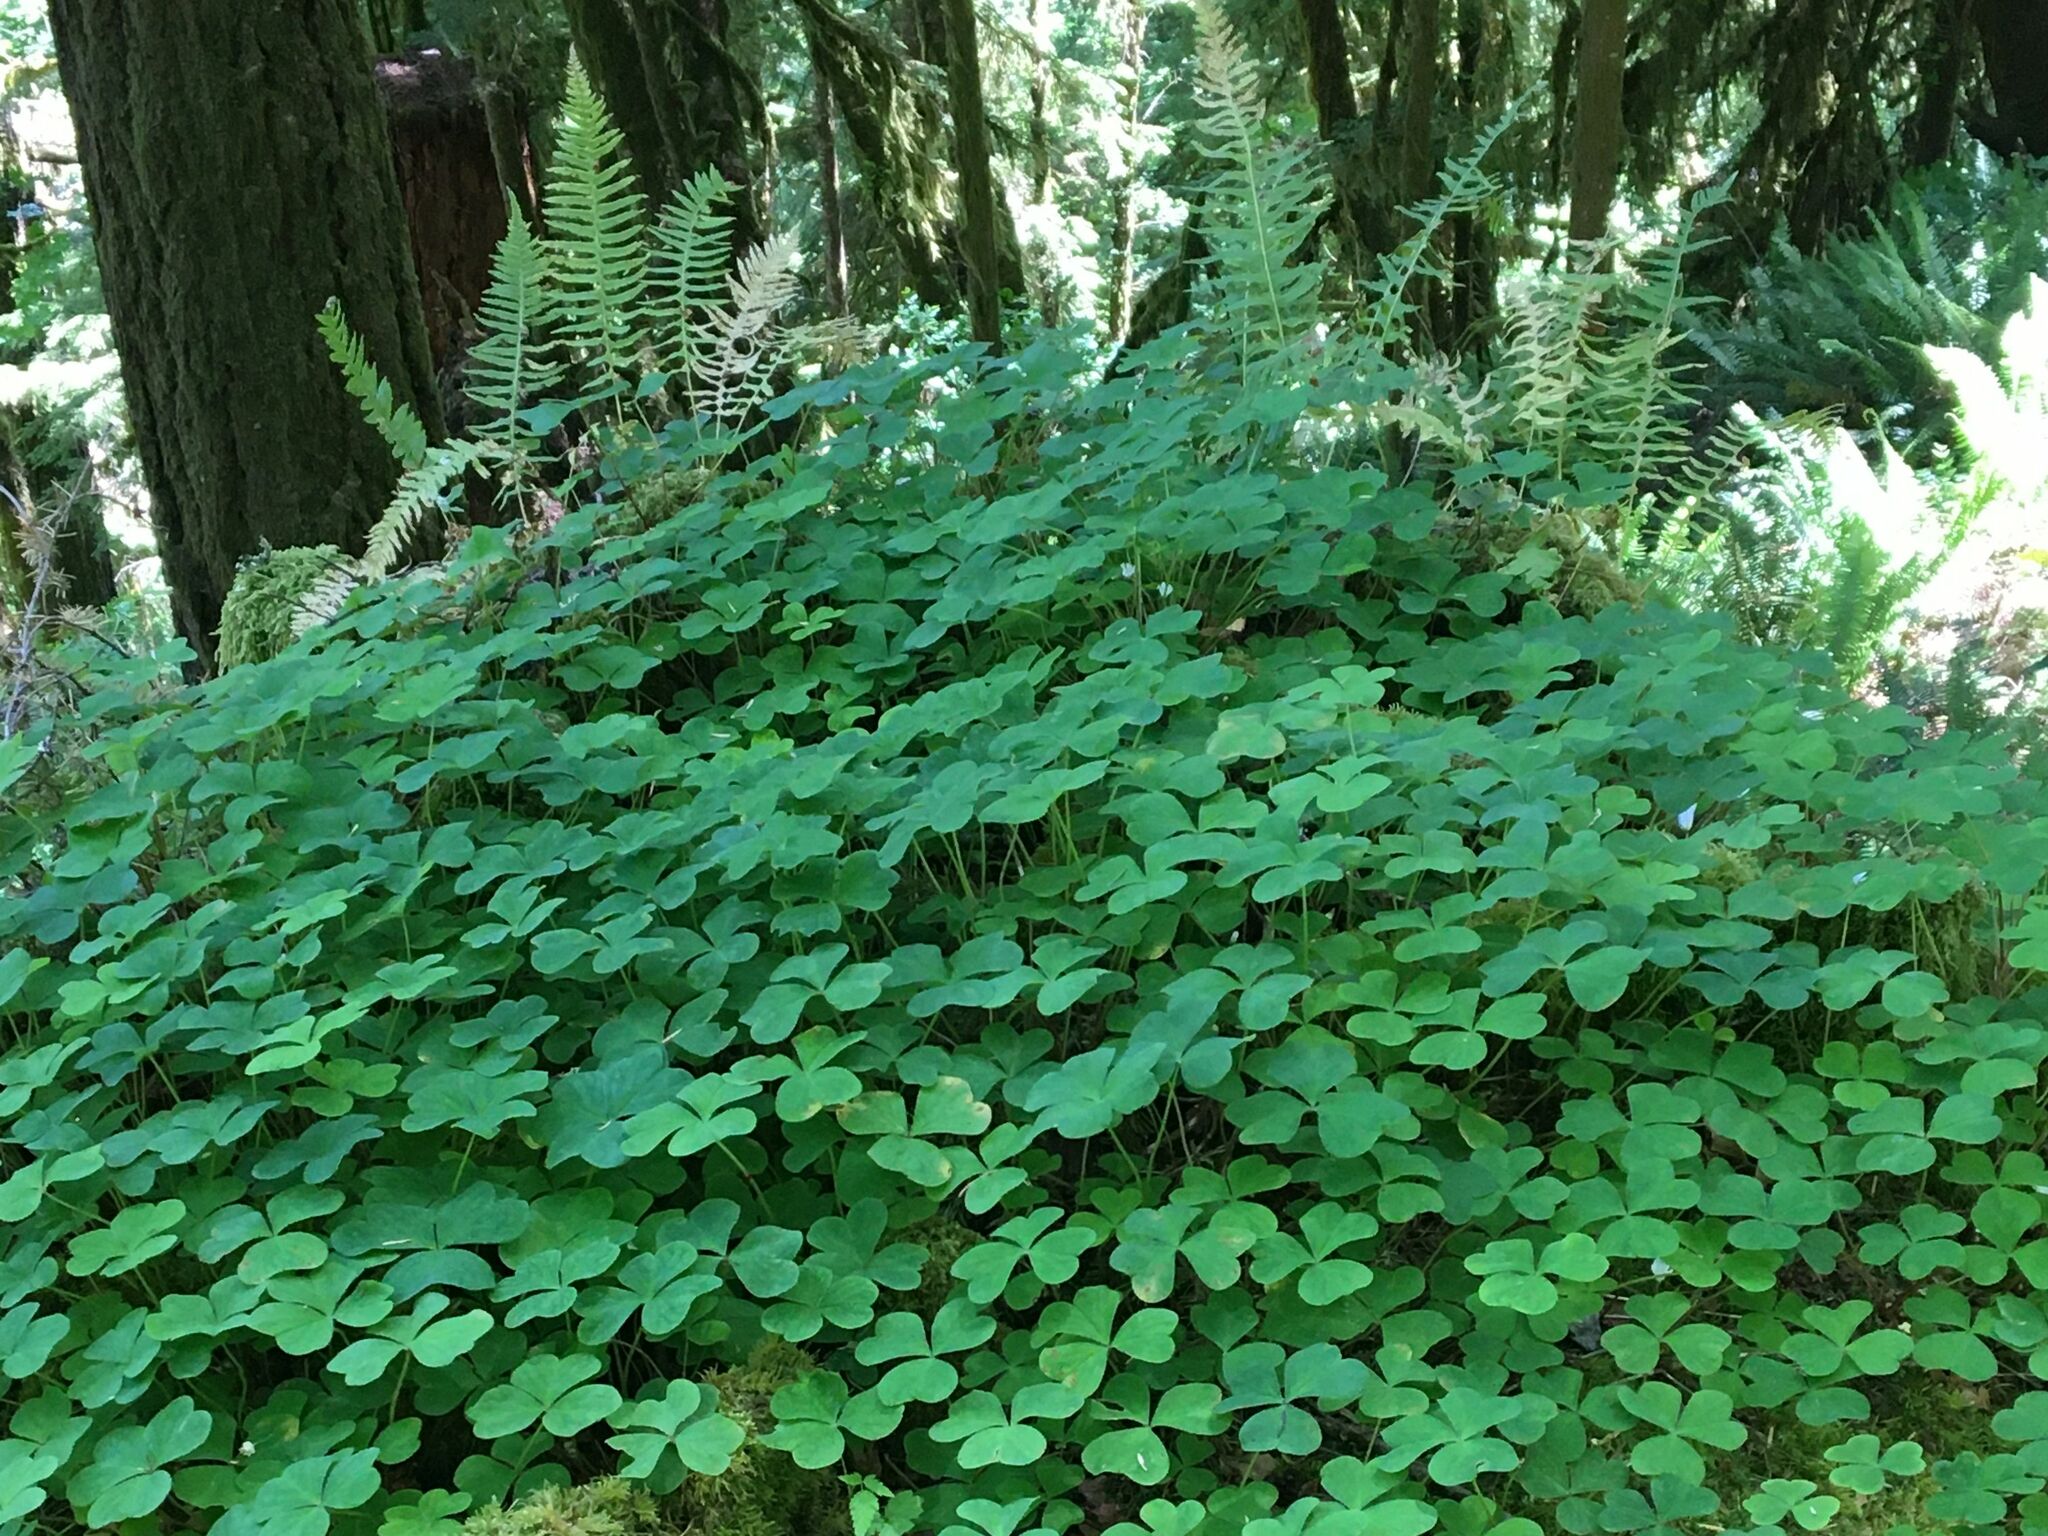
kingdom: Plantae
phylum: Tracheophyta
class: Magnoliopsida
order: Oxalidales
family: Oxalidaceae
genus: Oxalis
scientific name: Oxalis oregana
